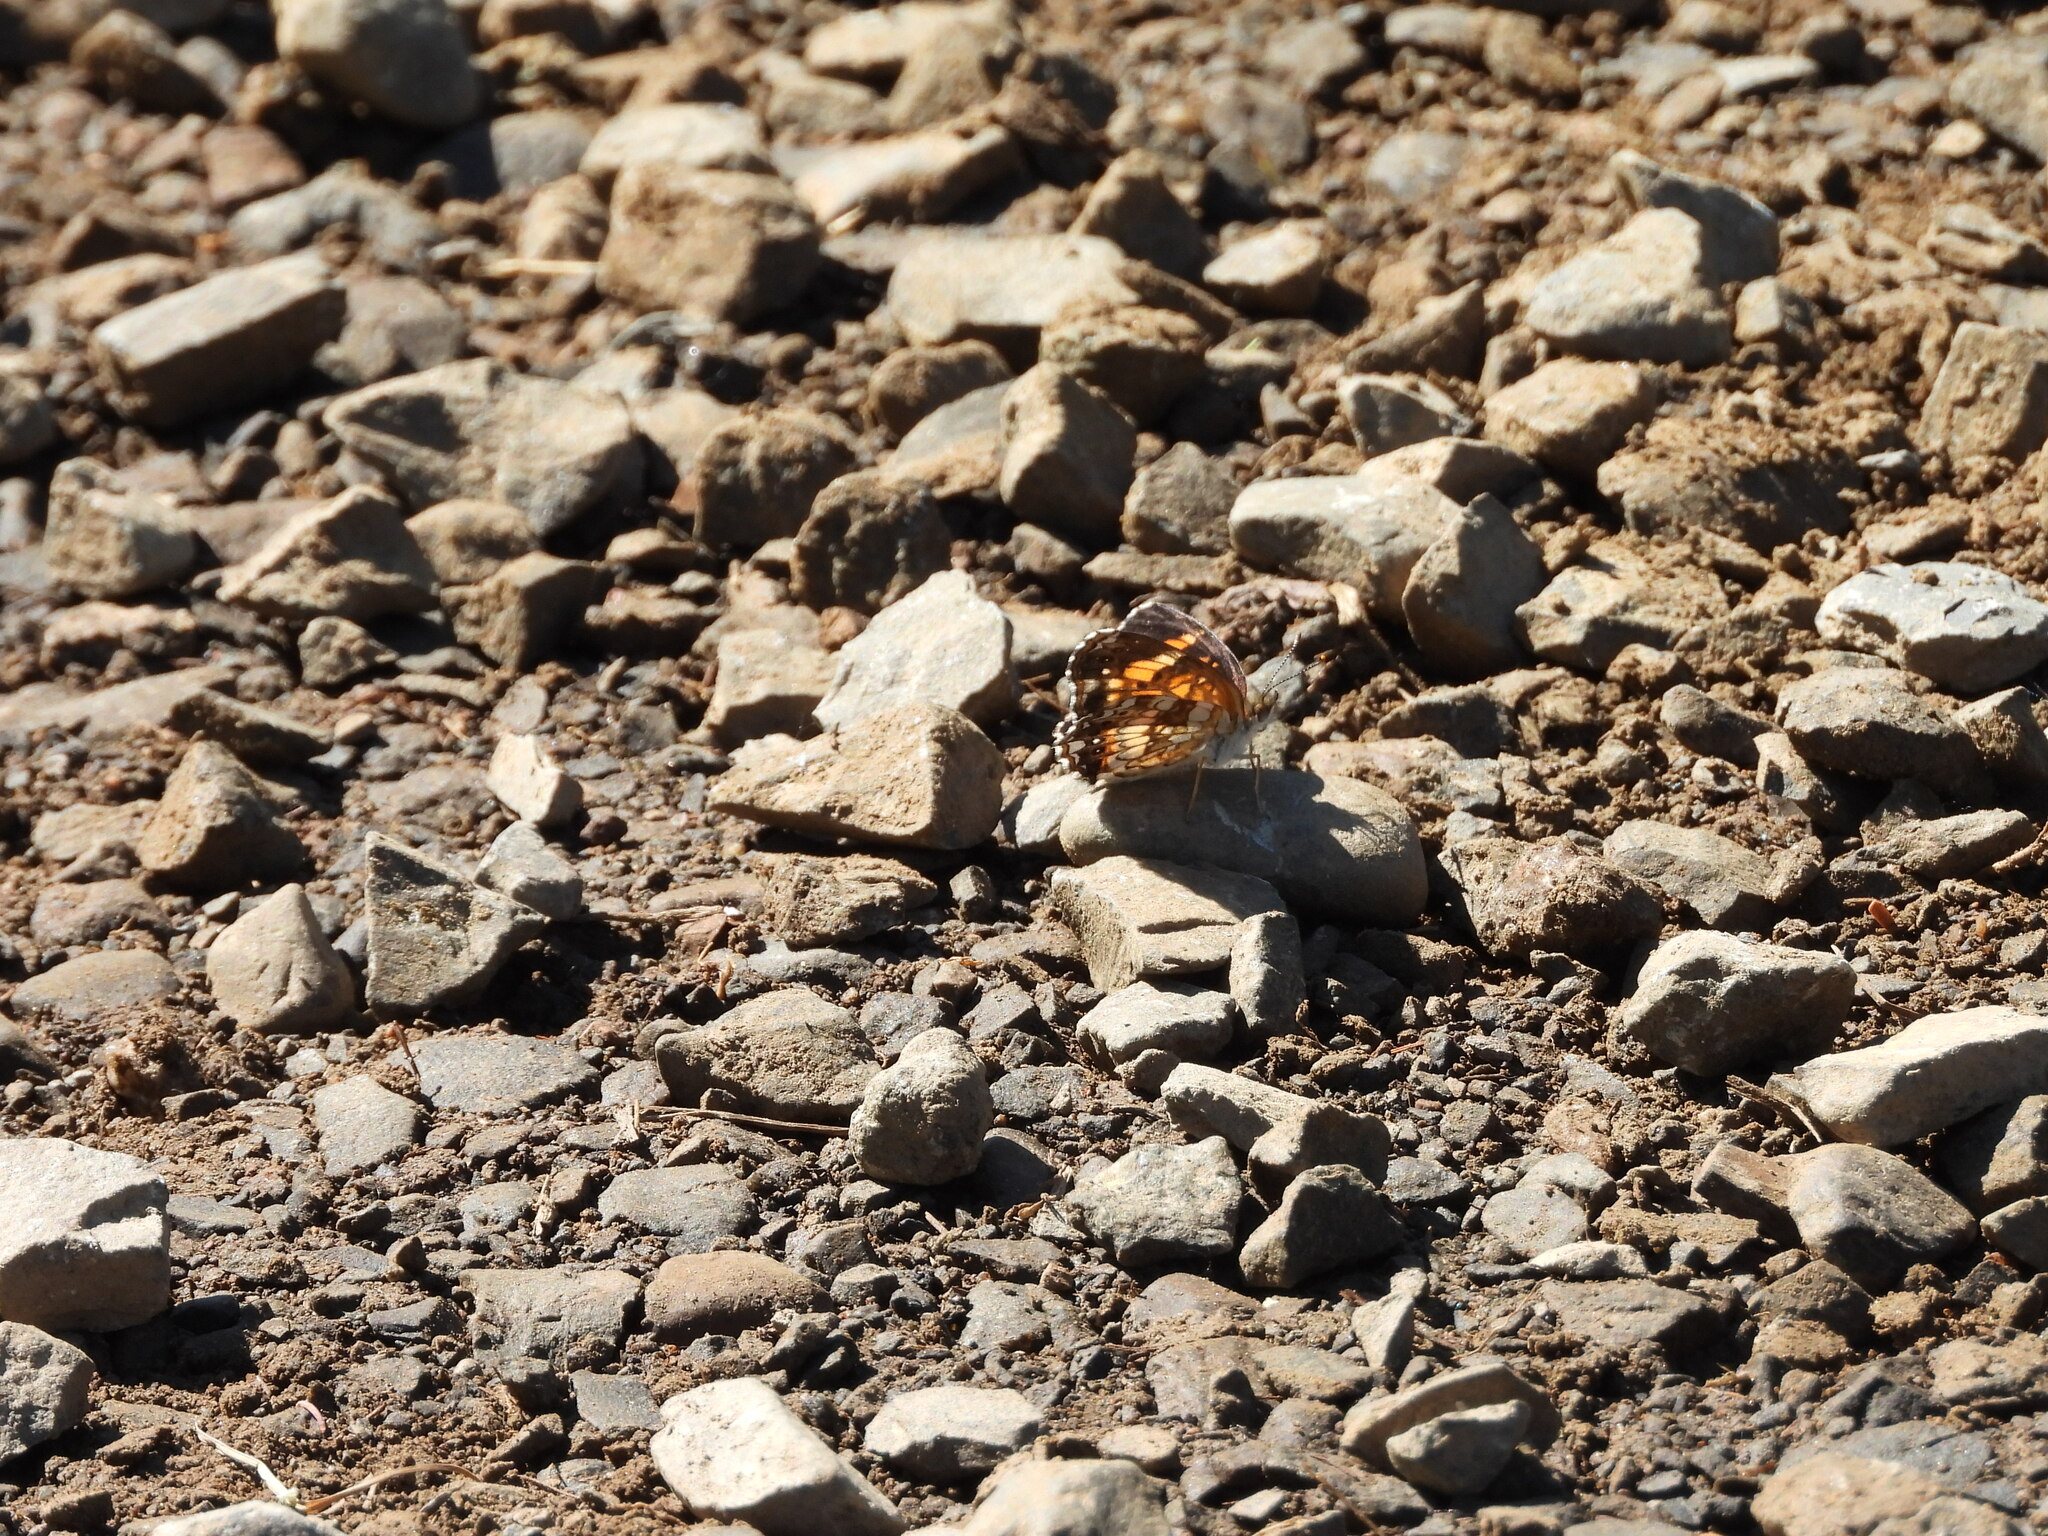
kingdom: Animalia
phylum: Arthropoda
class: Insecta
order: Lepidoptera
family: Nymphalidae
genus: Chlosyne
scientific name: Chlosyne nycteis
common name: Silvery checkerspot
